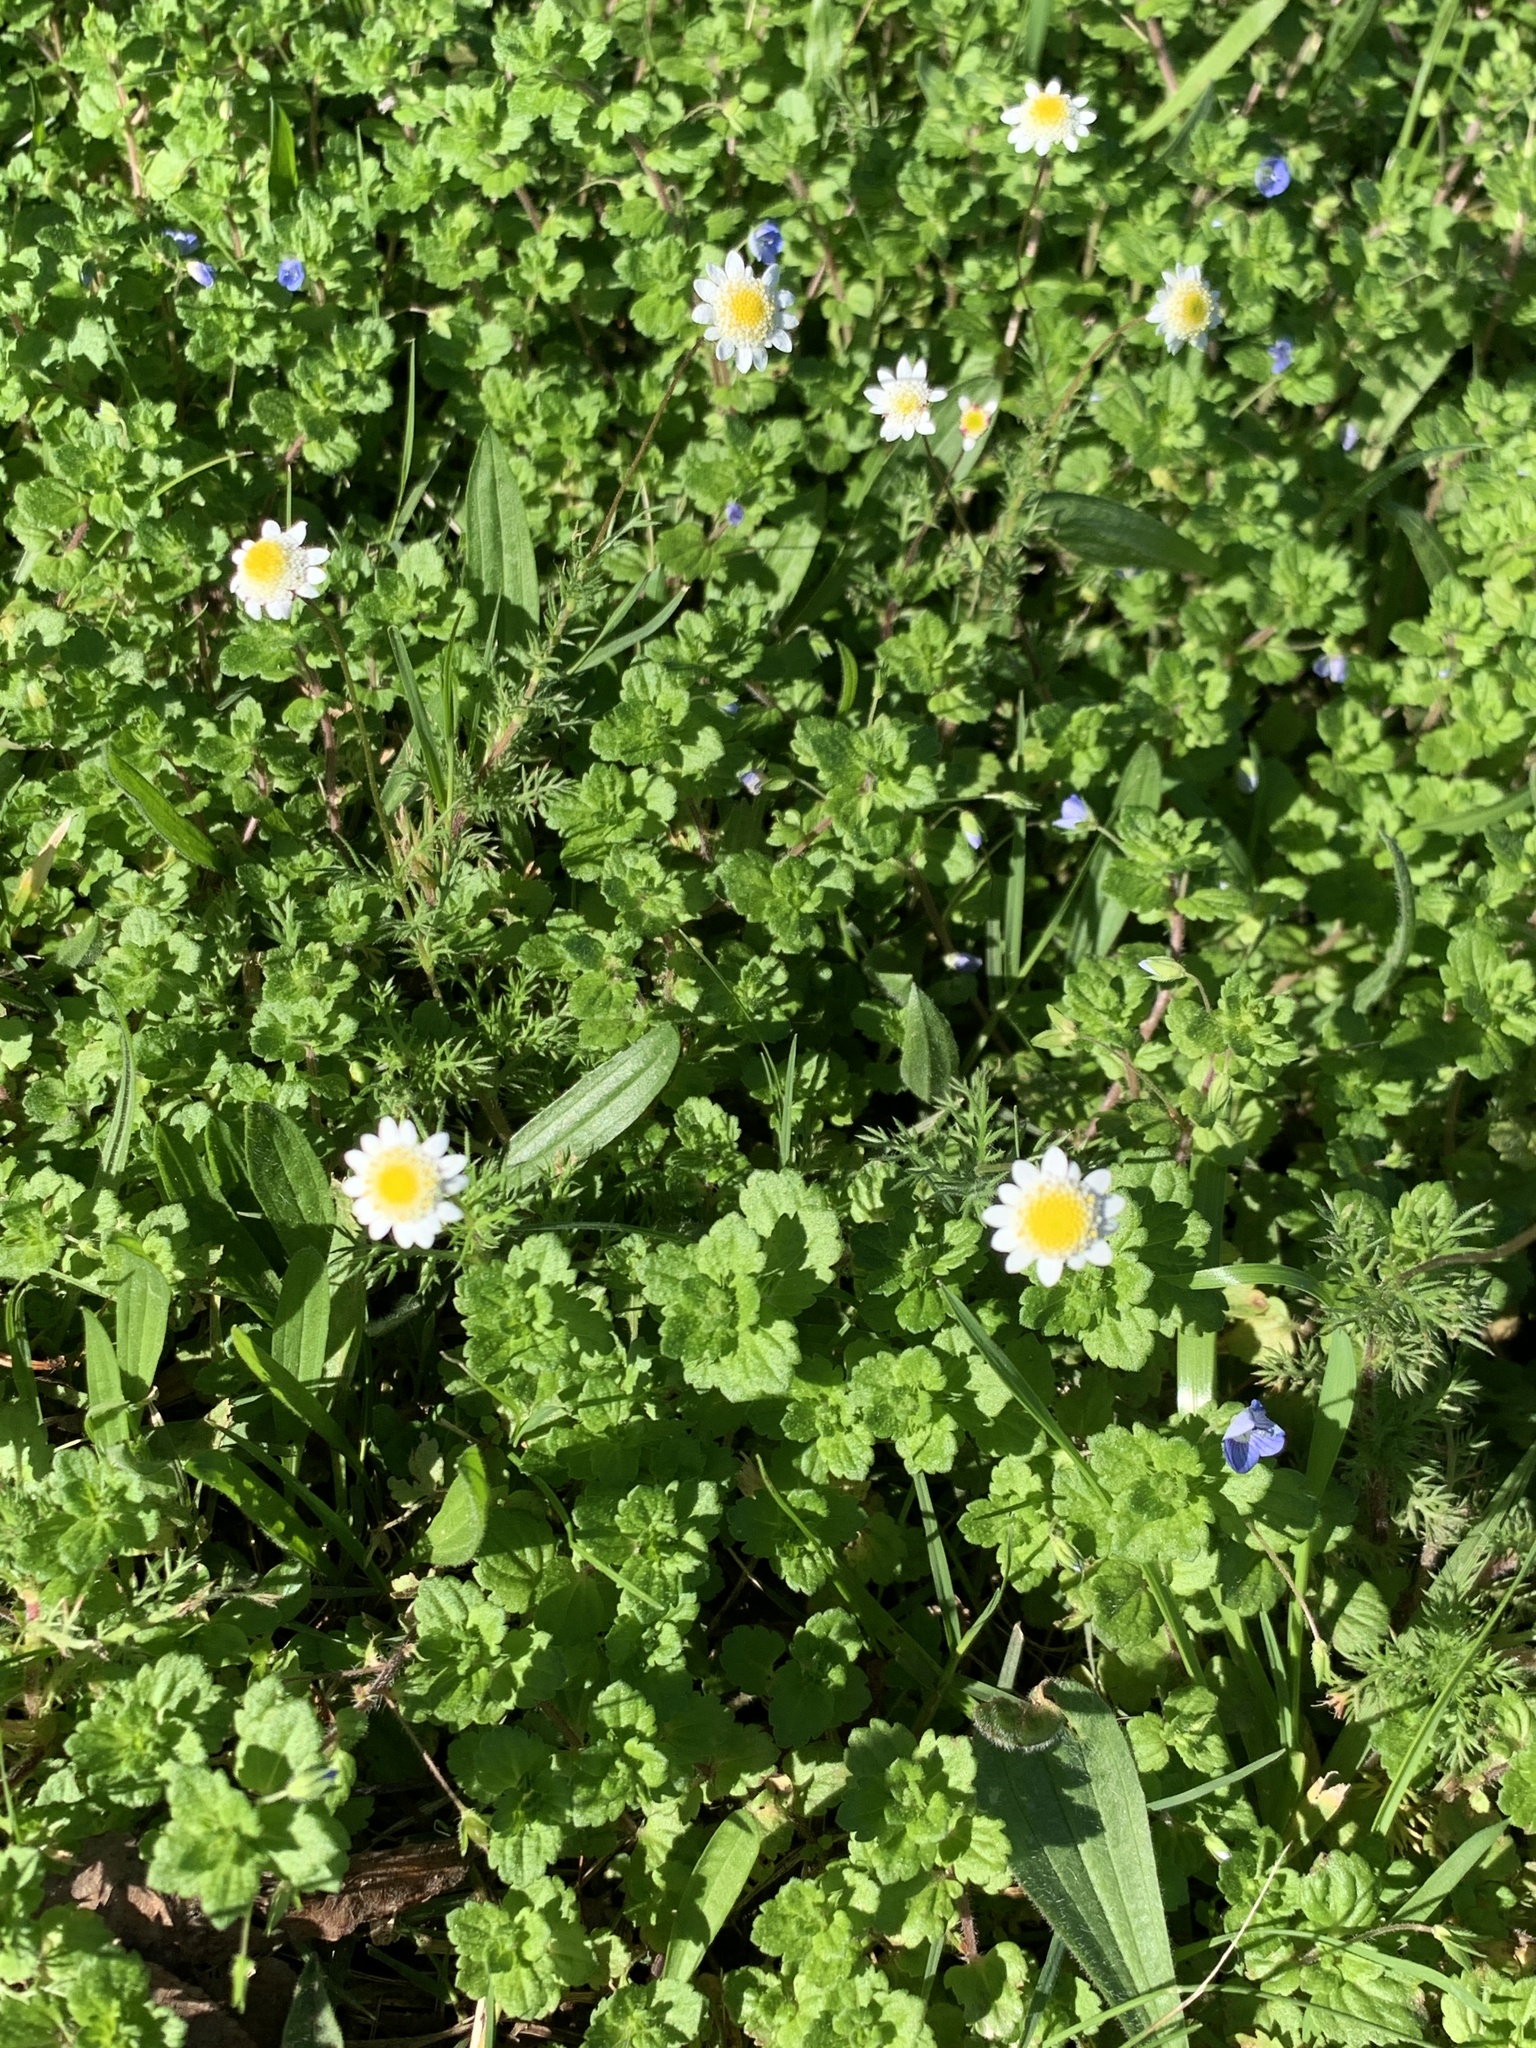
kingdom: Plantae
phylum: Tracheophyta
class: Magnoliopsida
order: Asterales
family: Asteraceae
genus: Cotula
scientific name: Cotula turbinata
